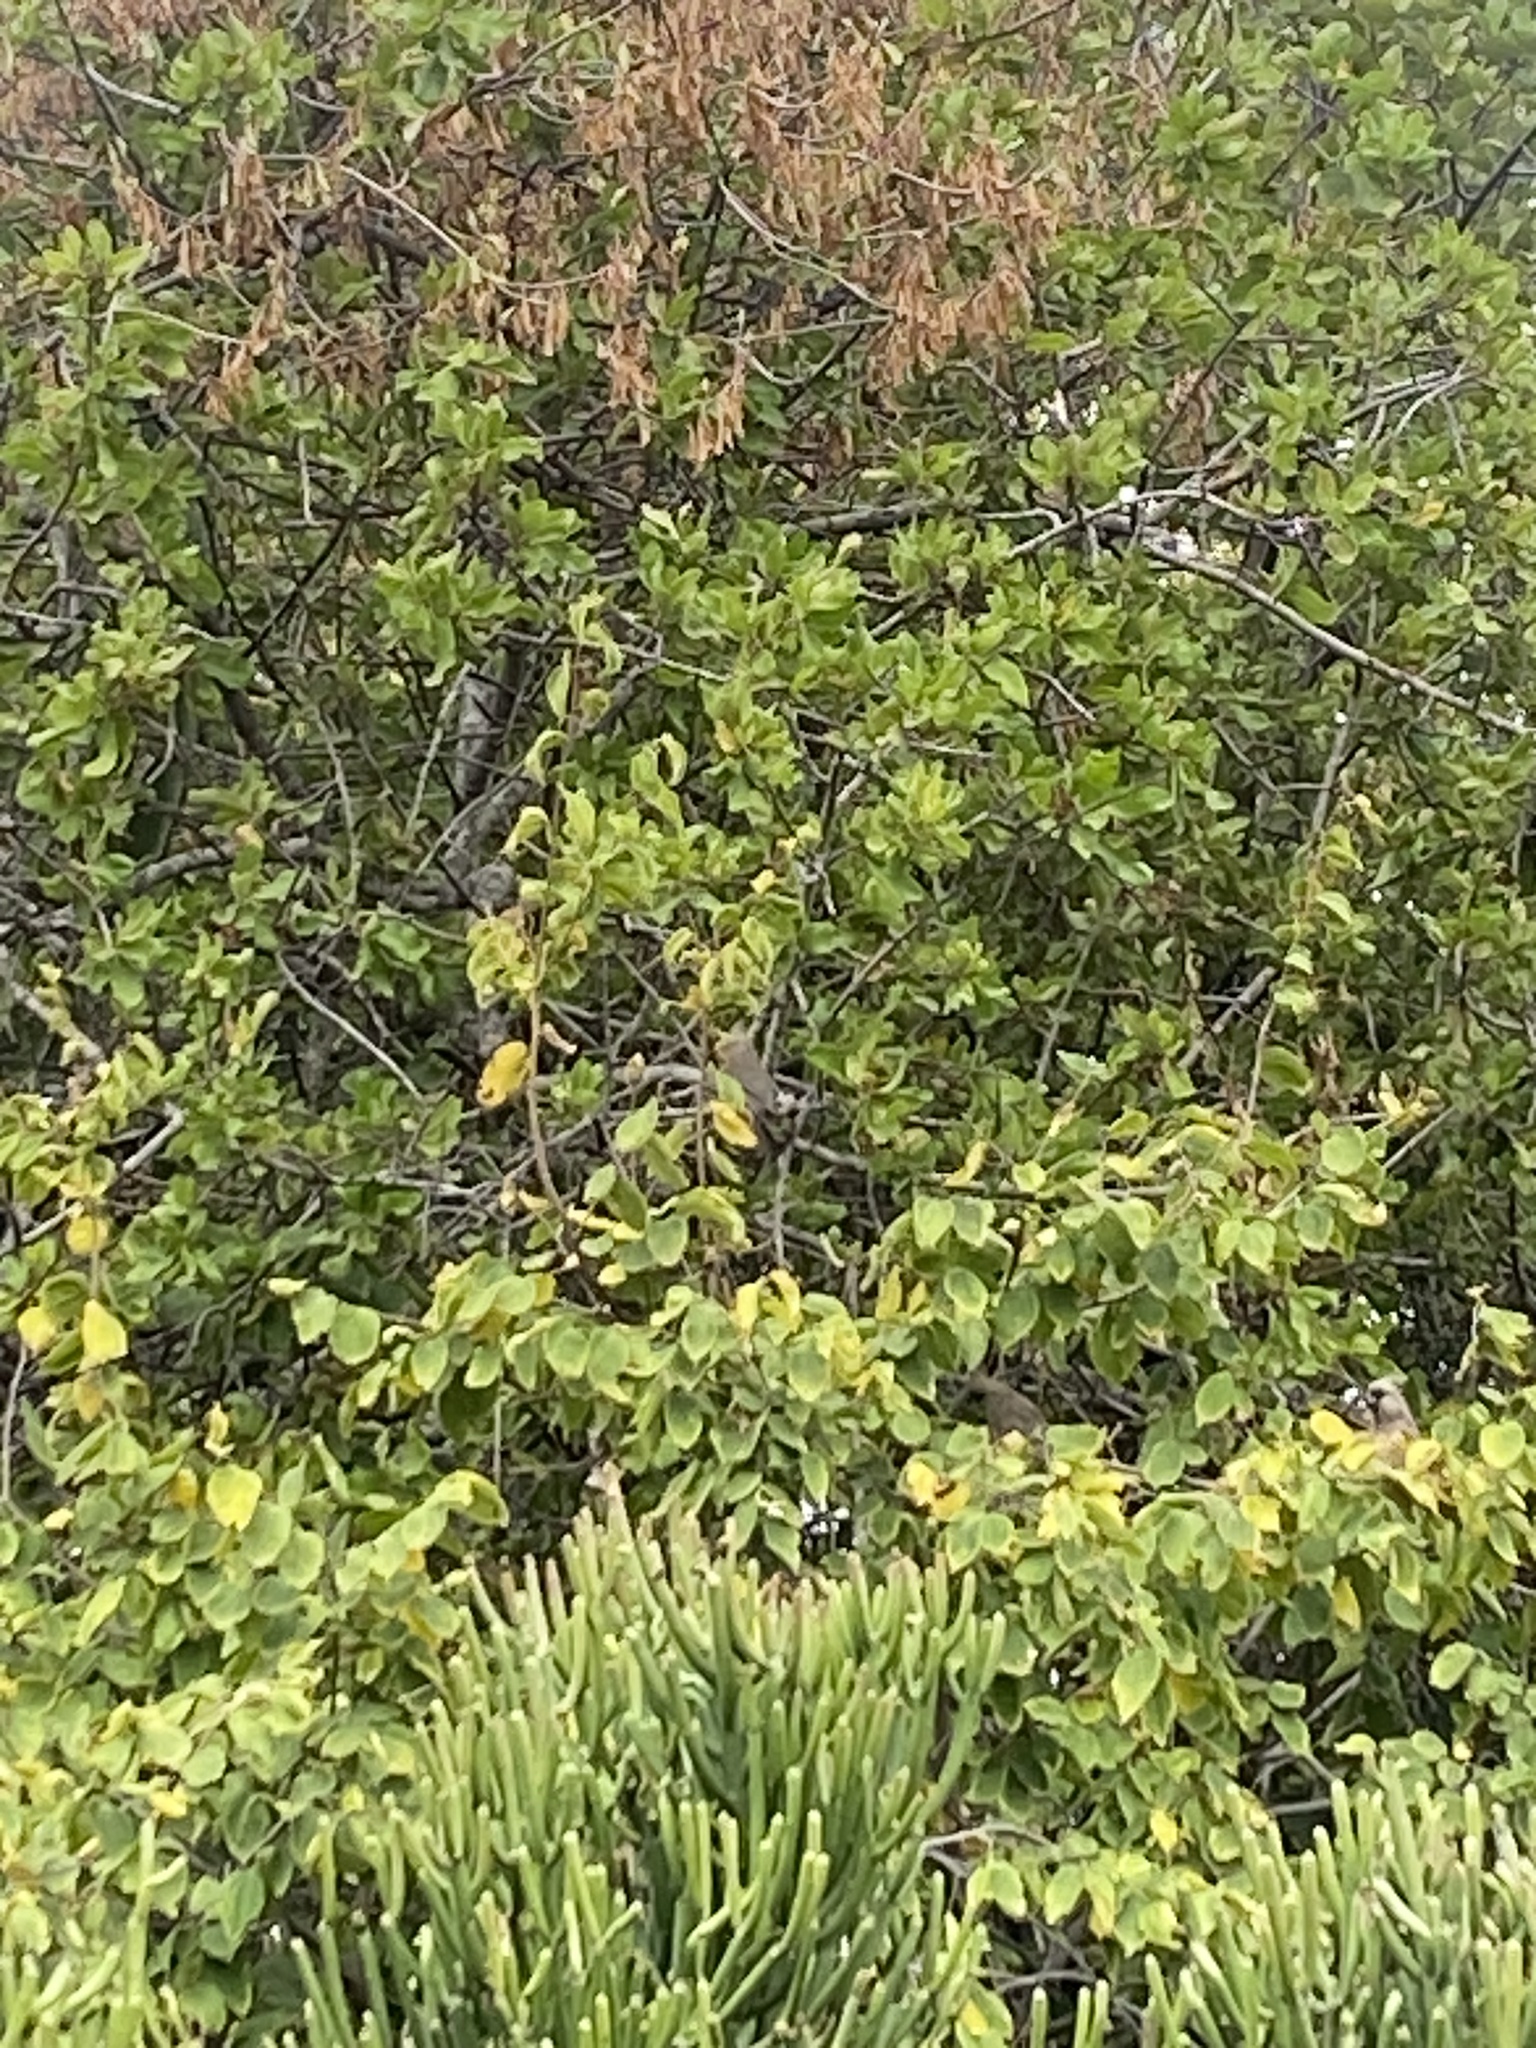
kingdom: Animalia
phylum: Chordata
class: Aves
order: Coliiformes
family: Coliidae
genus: Colius
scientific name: Colius striatus
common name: Speckled mousebird
